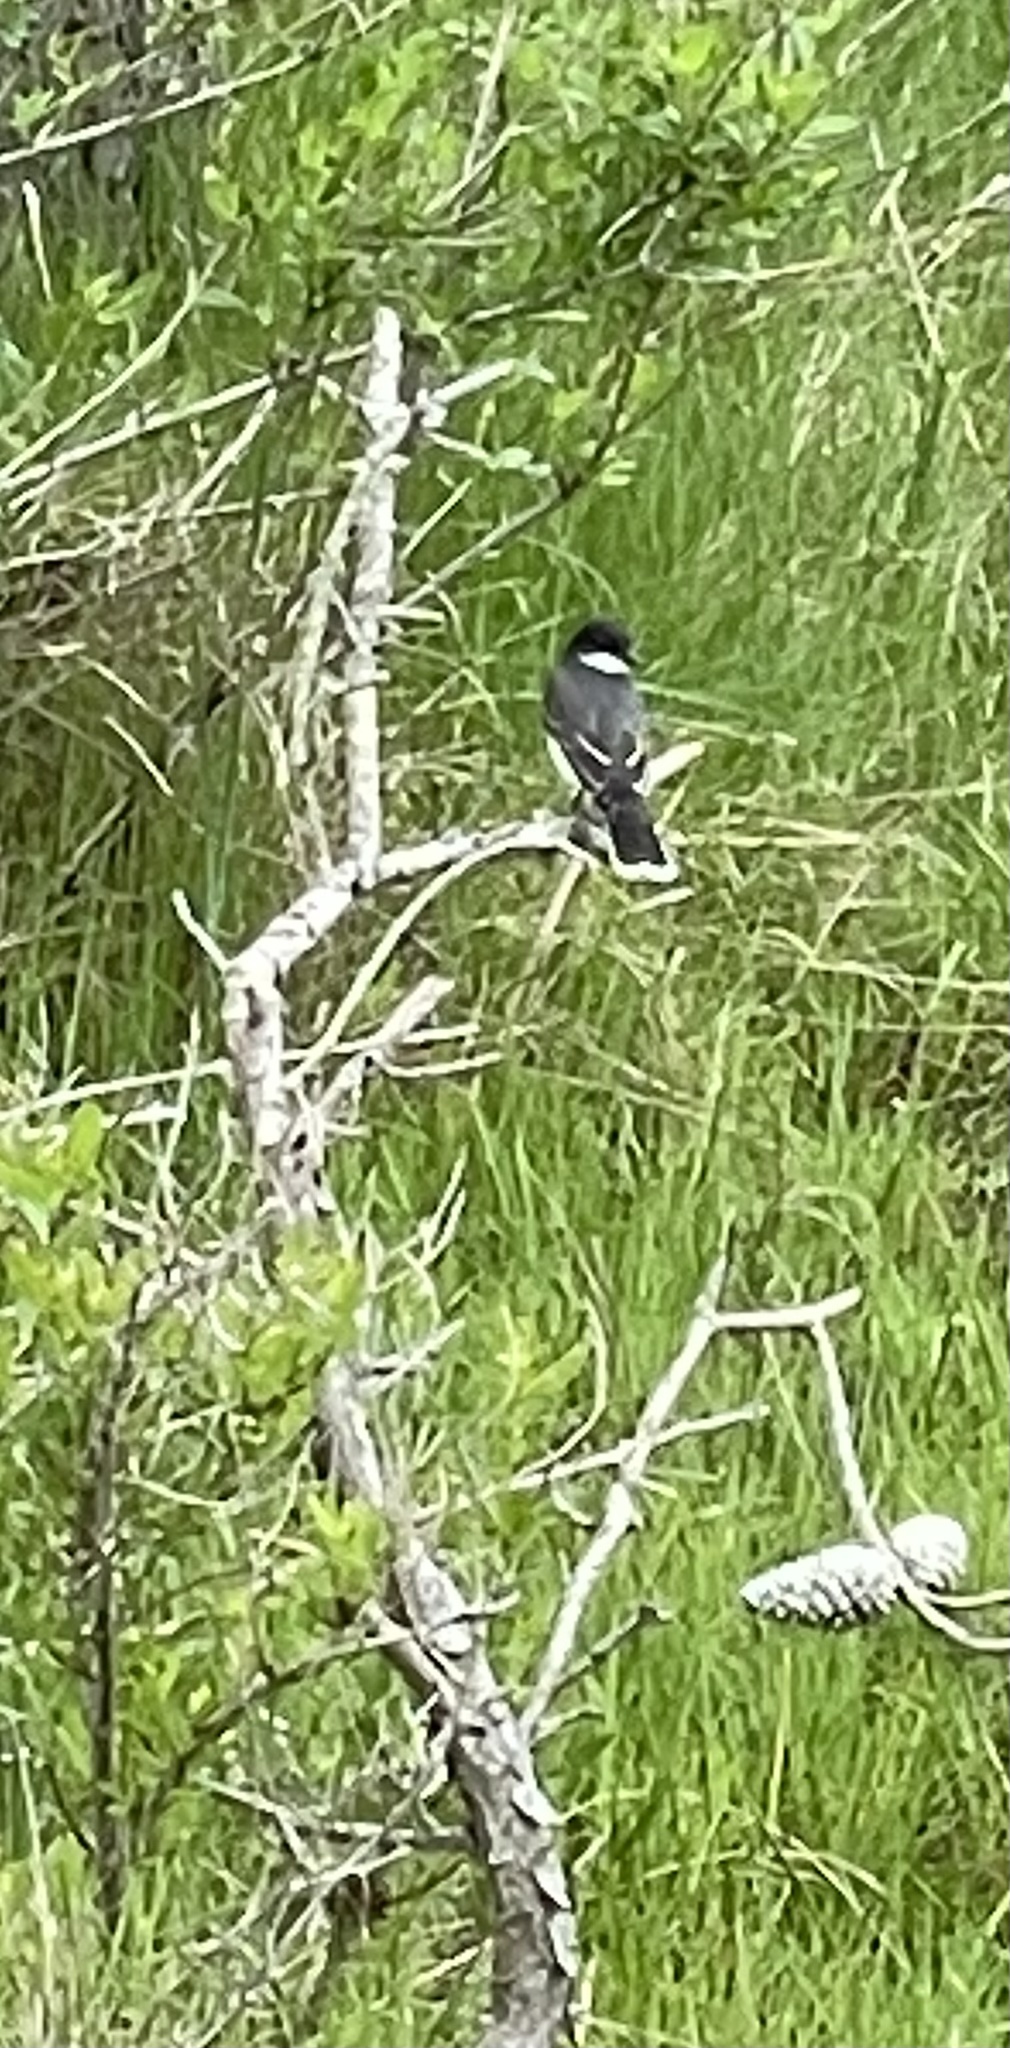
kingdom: Animalia
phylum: Chordata
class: Aves
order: Passeriformes
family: Tyrannidae
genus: Tyrannus
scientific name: Tyrannus tyrannus
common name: Eastern kingbird
